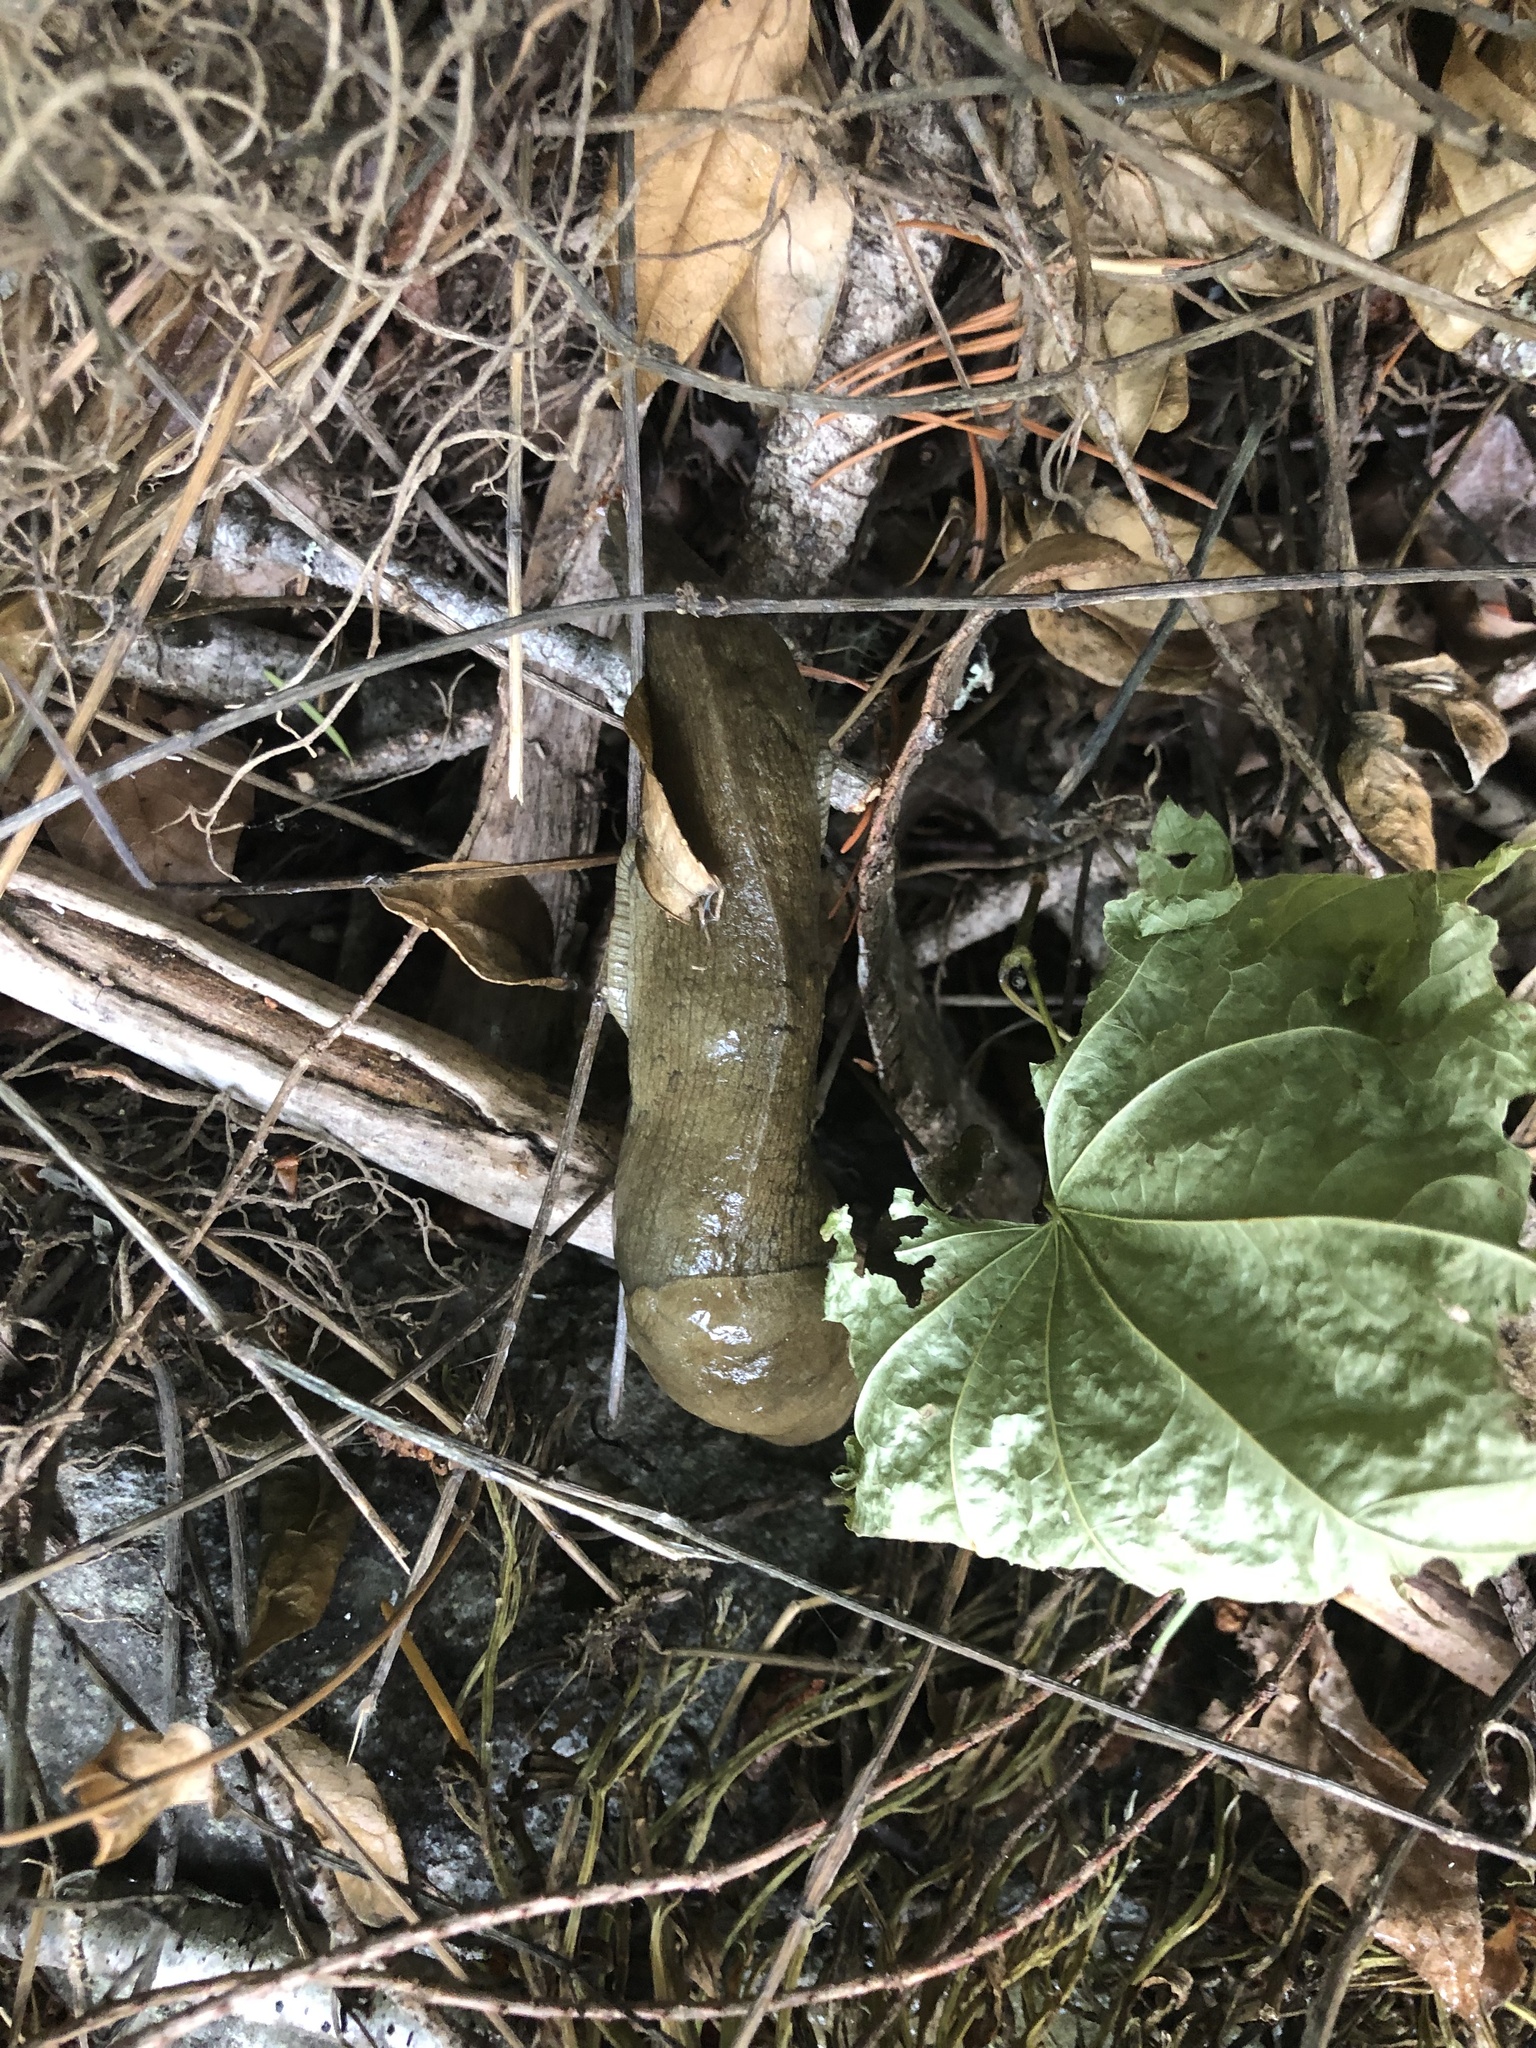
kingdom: Animalia
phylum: Mollusca
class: Gastropoda
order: Stylommatophora
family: Ariolimacidae
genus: Ariolimax
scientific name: Ariolimax columbianus
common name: Pacific banana slug
